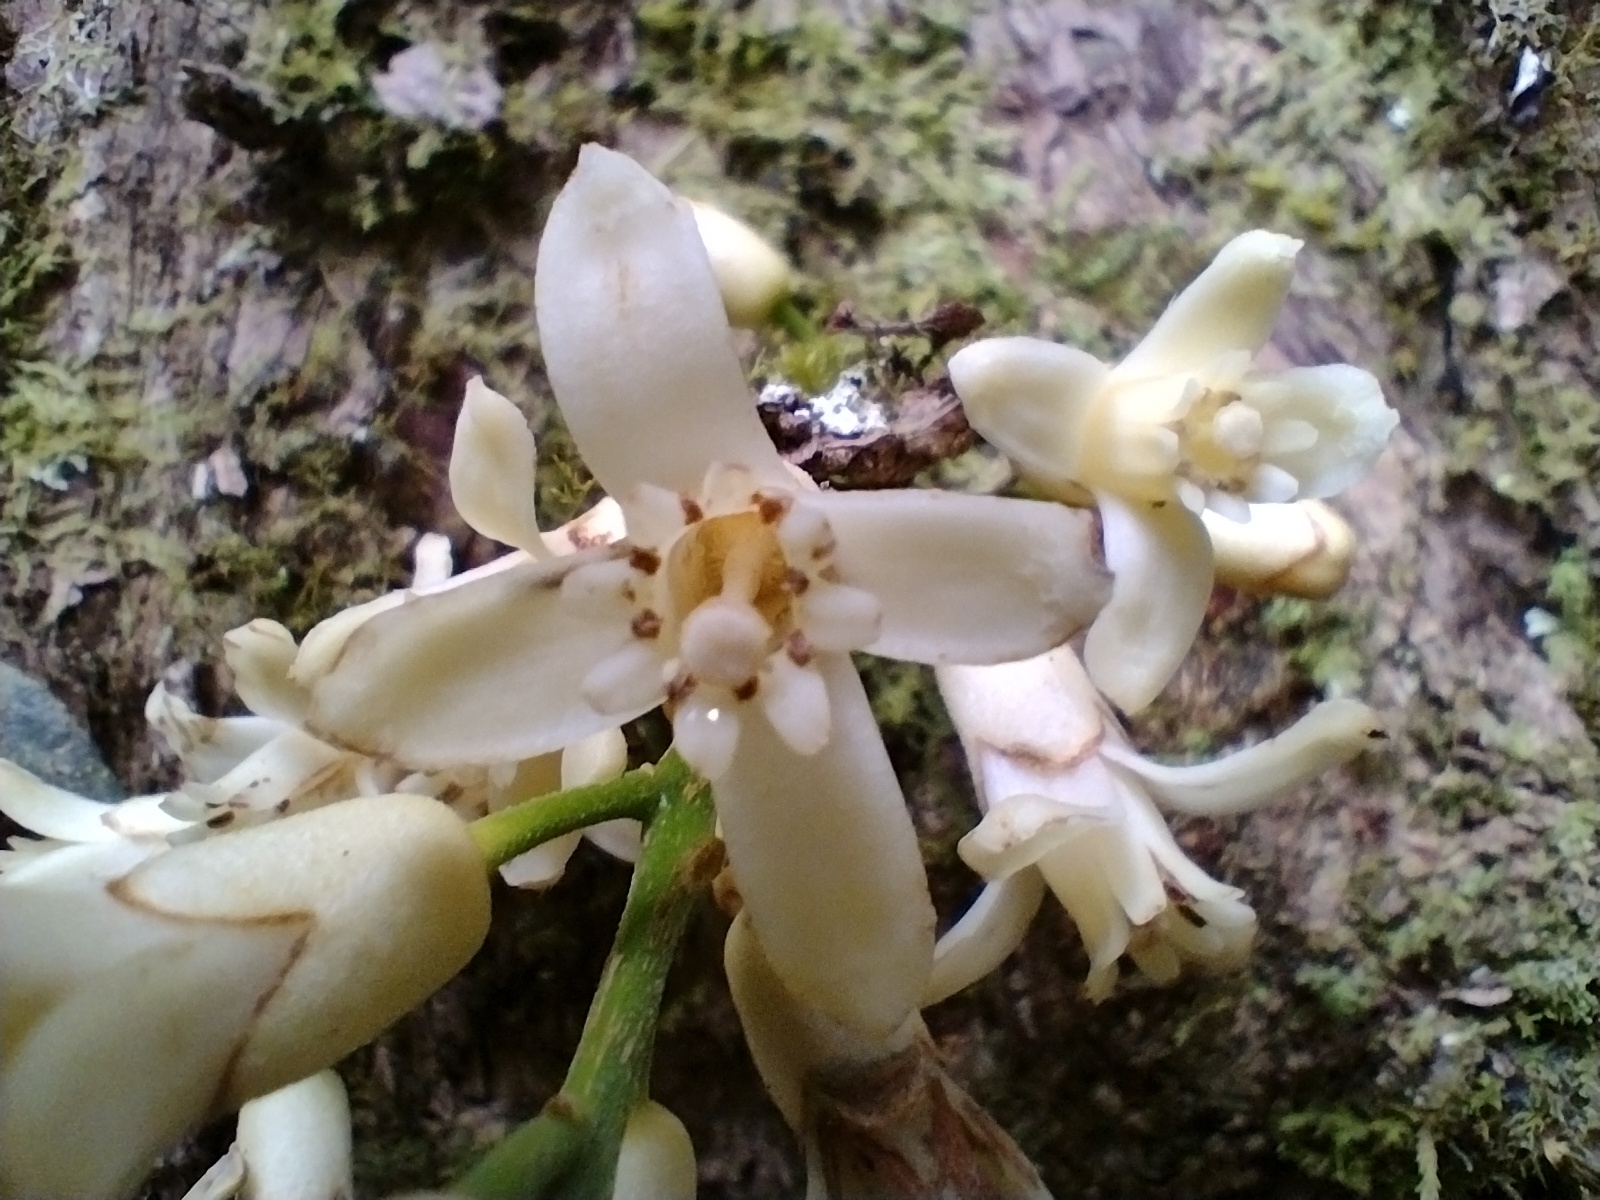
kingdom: Plantae
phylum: Tracheophyta
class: Magnoliopsida
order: Sapindales
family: Meliaceae
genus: Epicharis
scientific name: Epicharis parasitica
